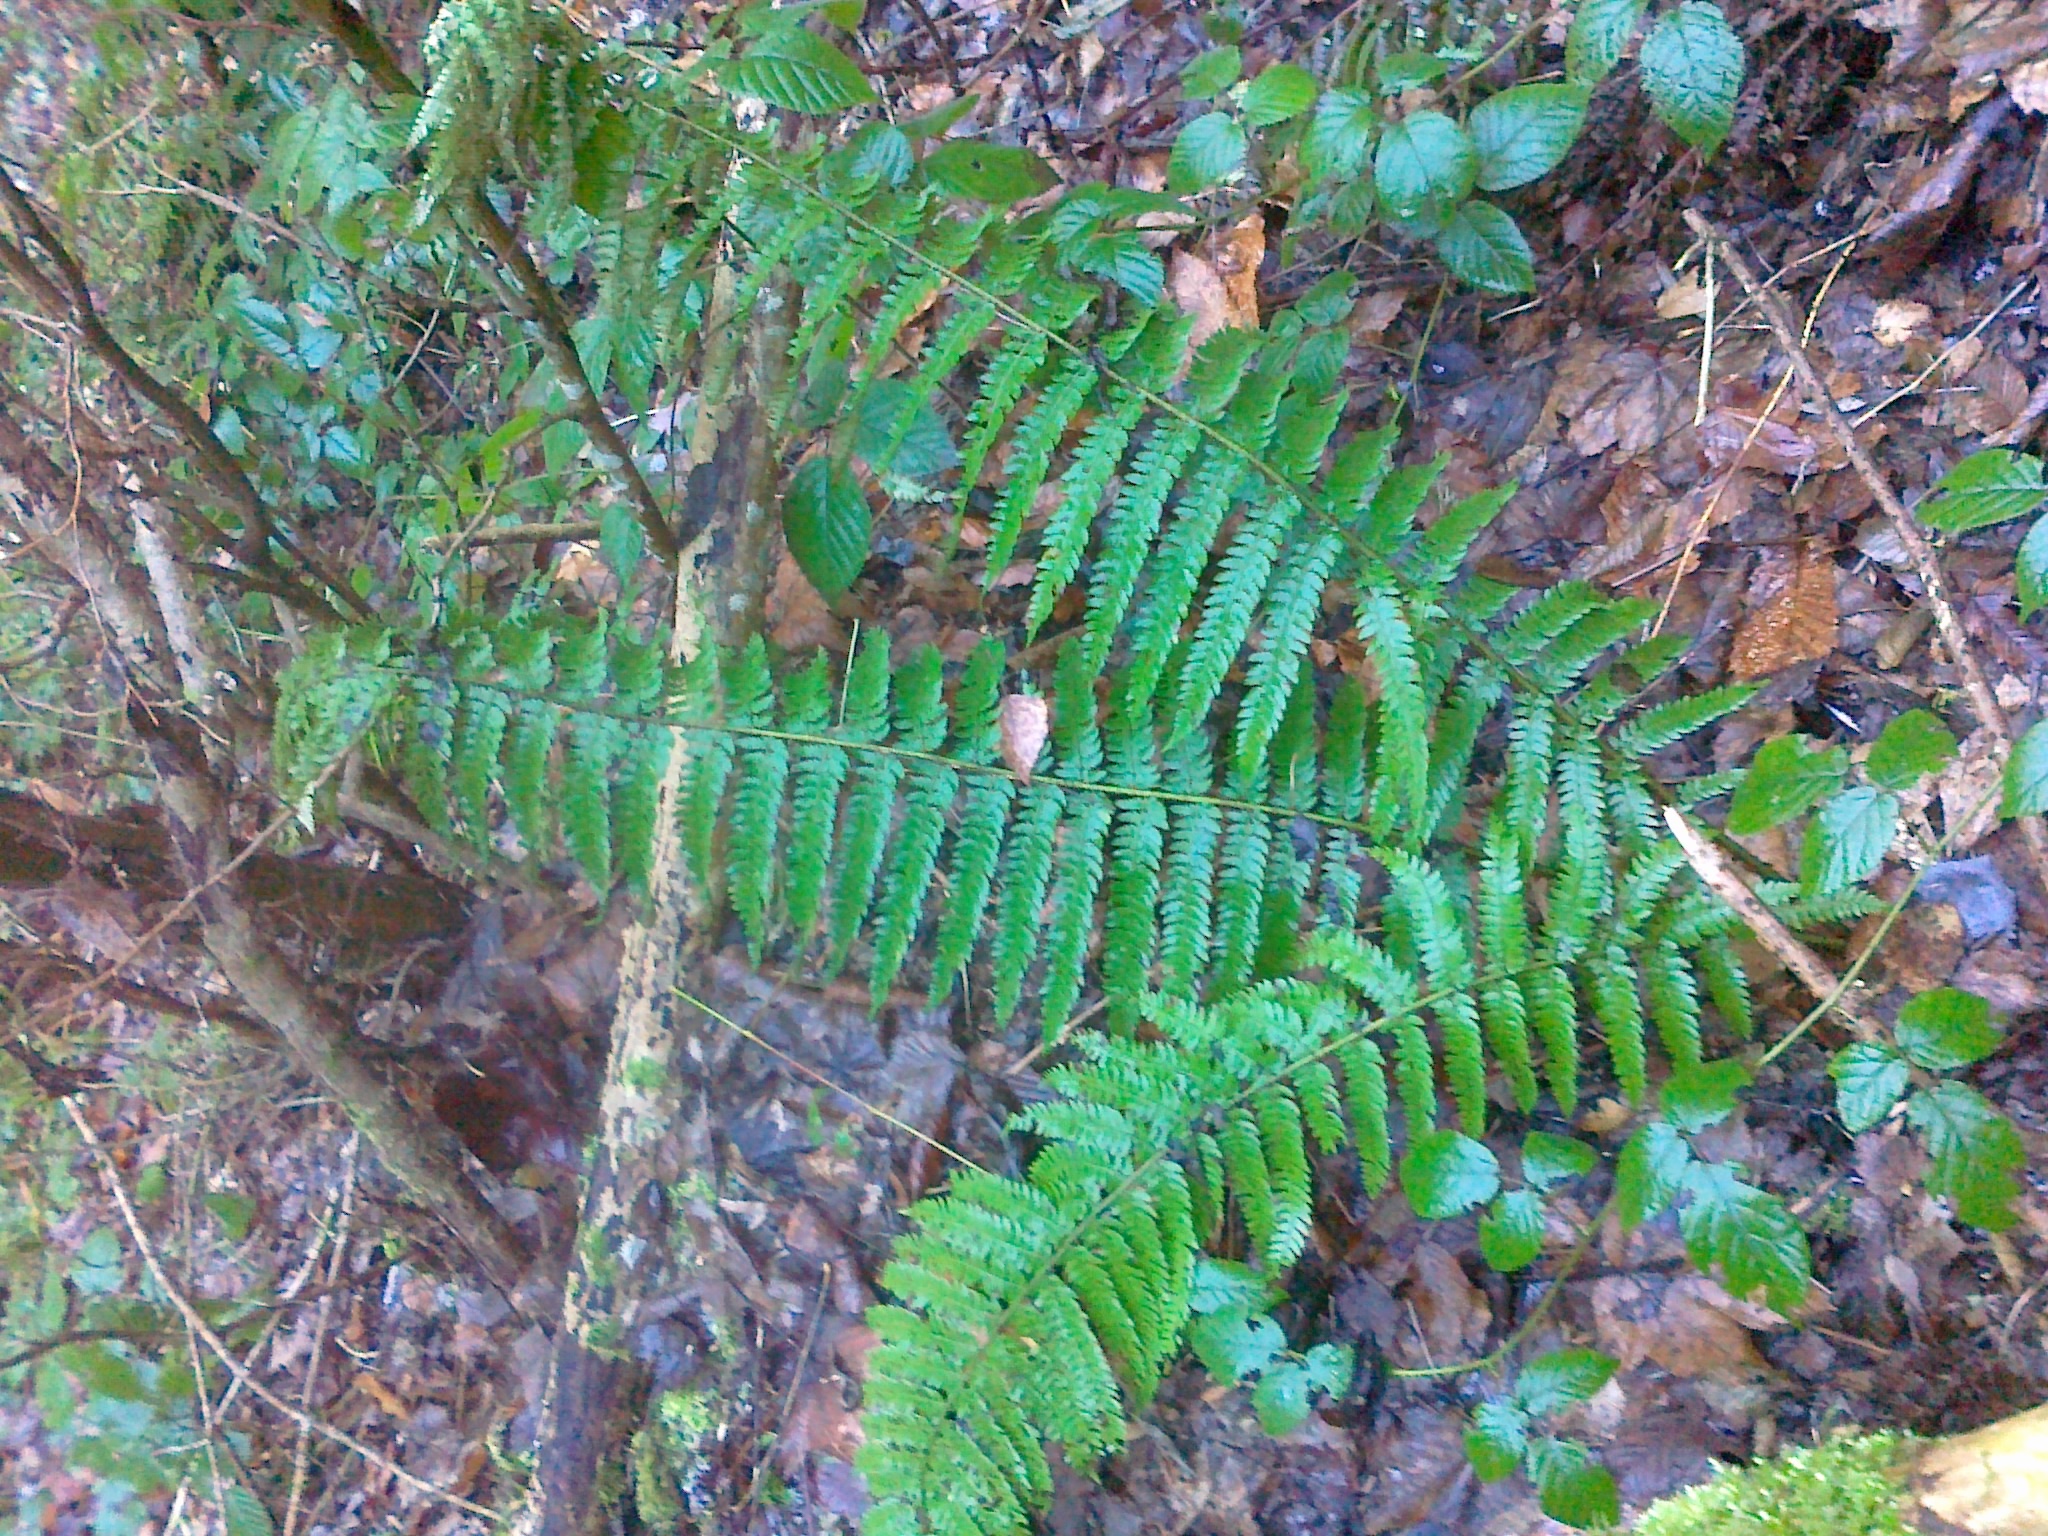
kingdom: Plantae
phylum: Tracheophyta
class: Polypodiopsida
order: Polypodiales
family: Dryopteridaceae
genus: Polystichum
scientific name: Polystichum setiferum
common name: Soft shield-fern
